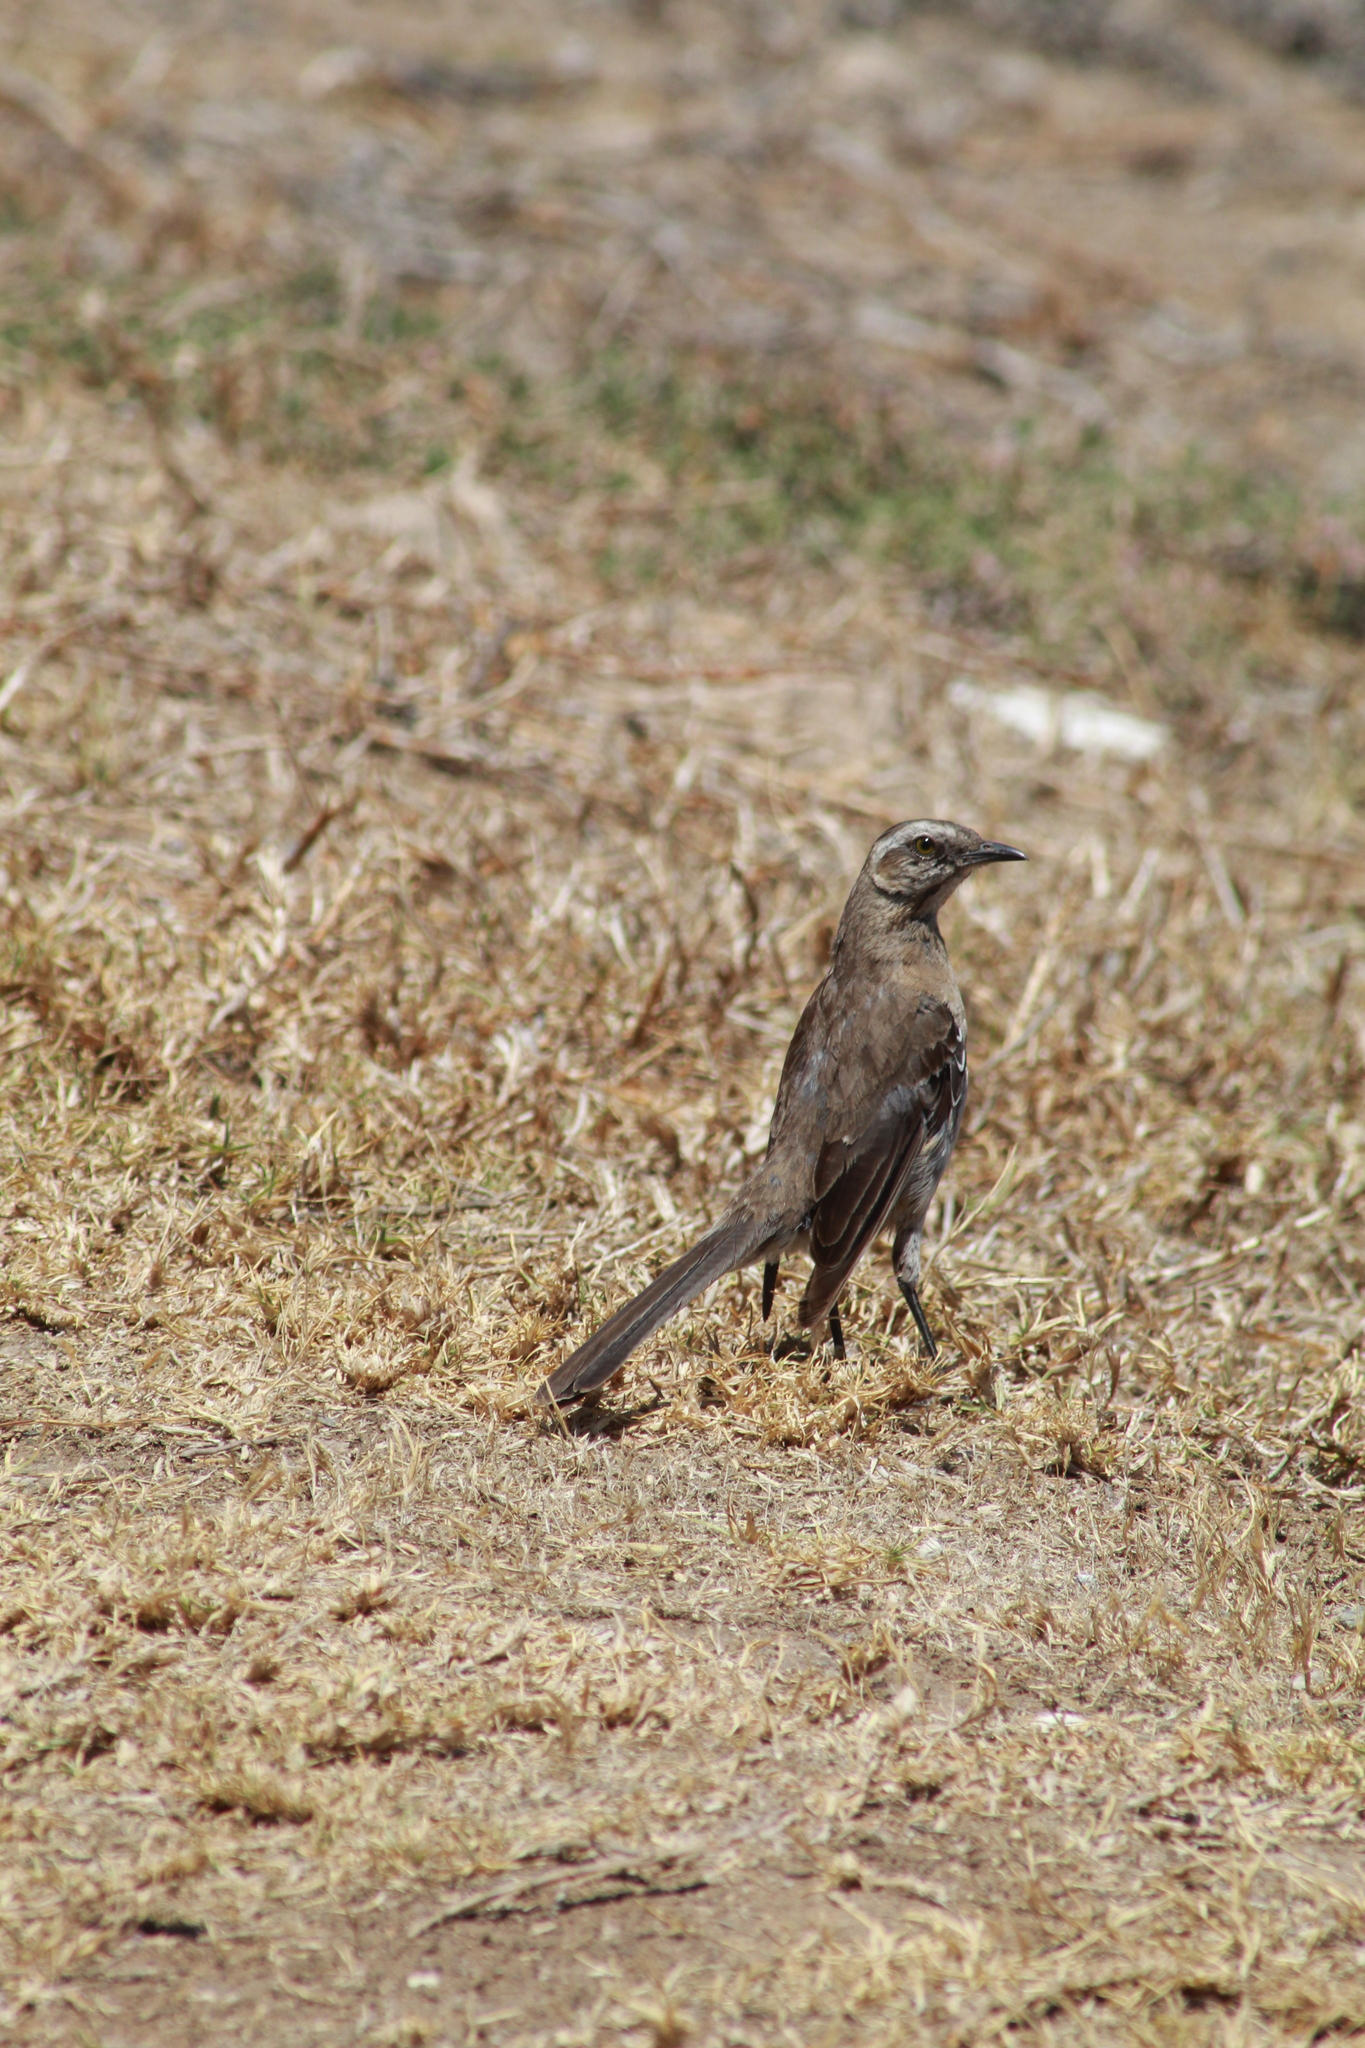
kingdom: Animalia
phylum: Chordata
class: Aves
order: Passeriformes
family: Mimidae
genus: Mimus
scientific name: Mimus thenca
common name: Chilean mockingbird
